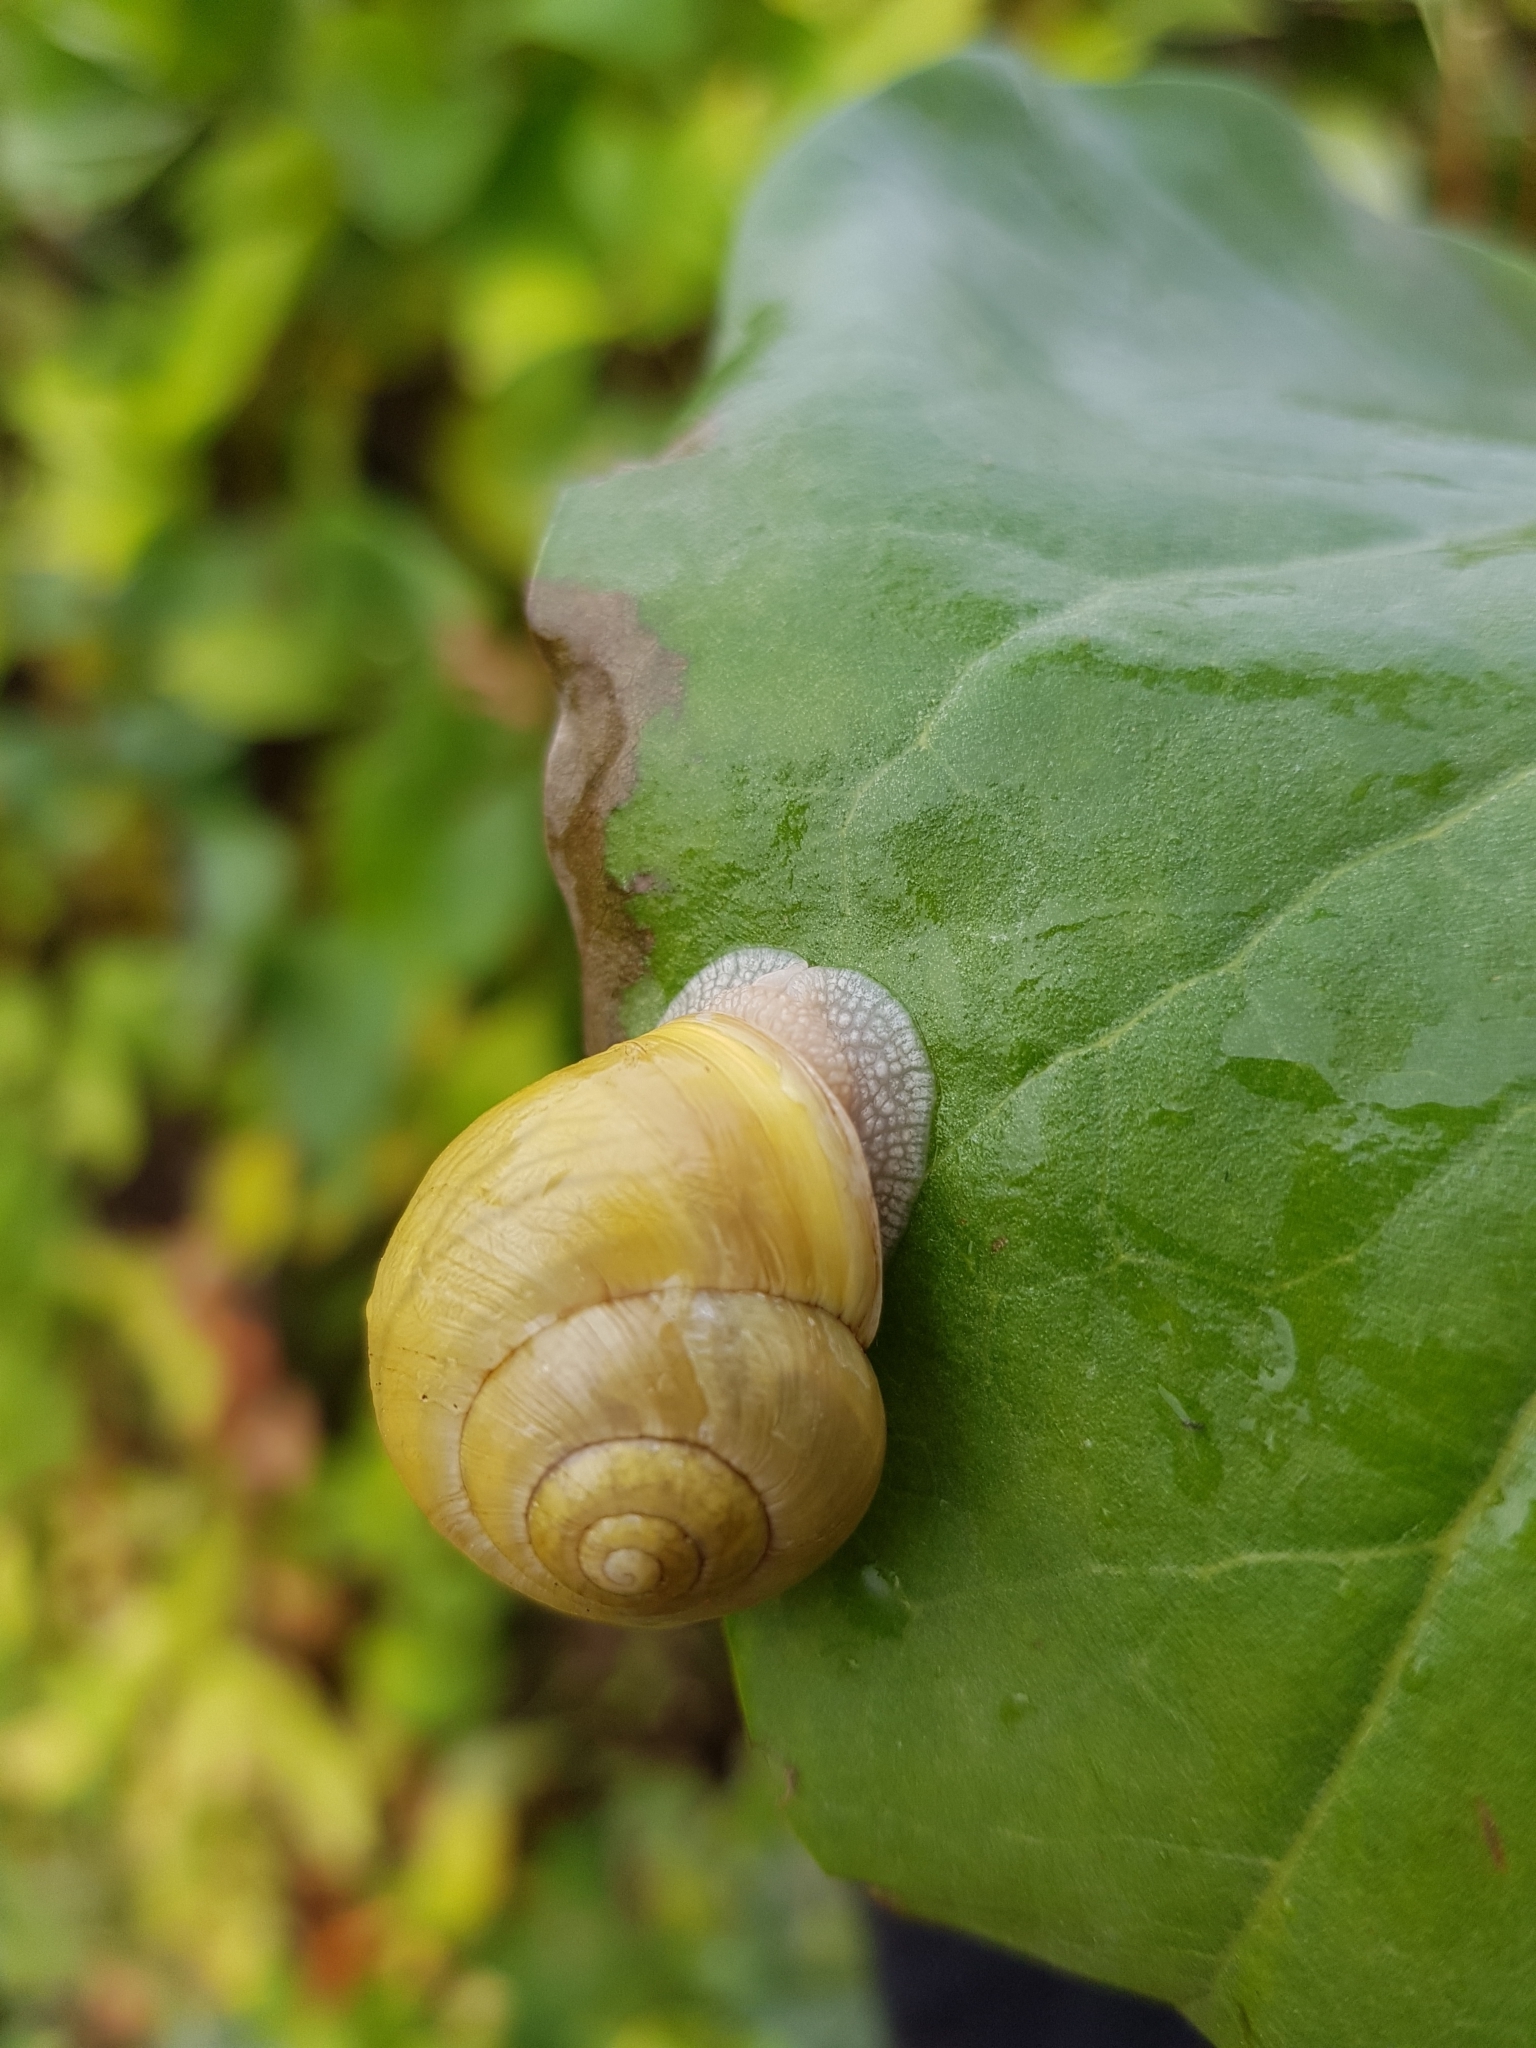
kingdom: Animalia
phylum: Mollusca
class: Gastropoda
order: Stylommatophora
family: Helicidae
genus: Cepaea
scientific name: Cepaea hortensis
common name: White-lip gardensnail
